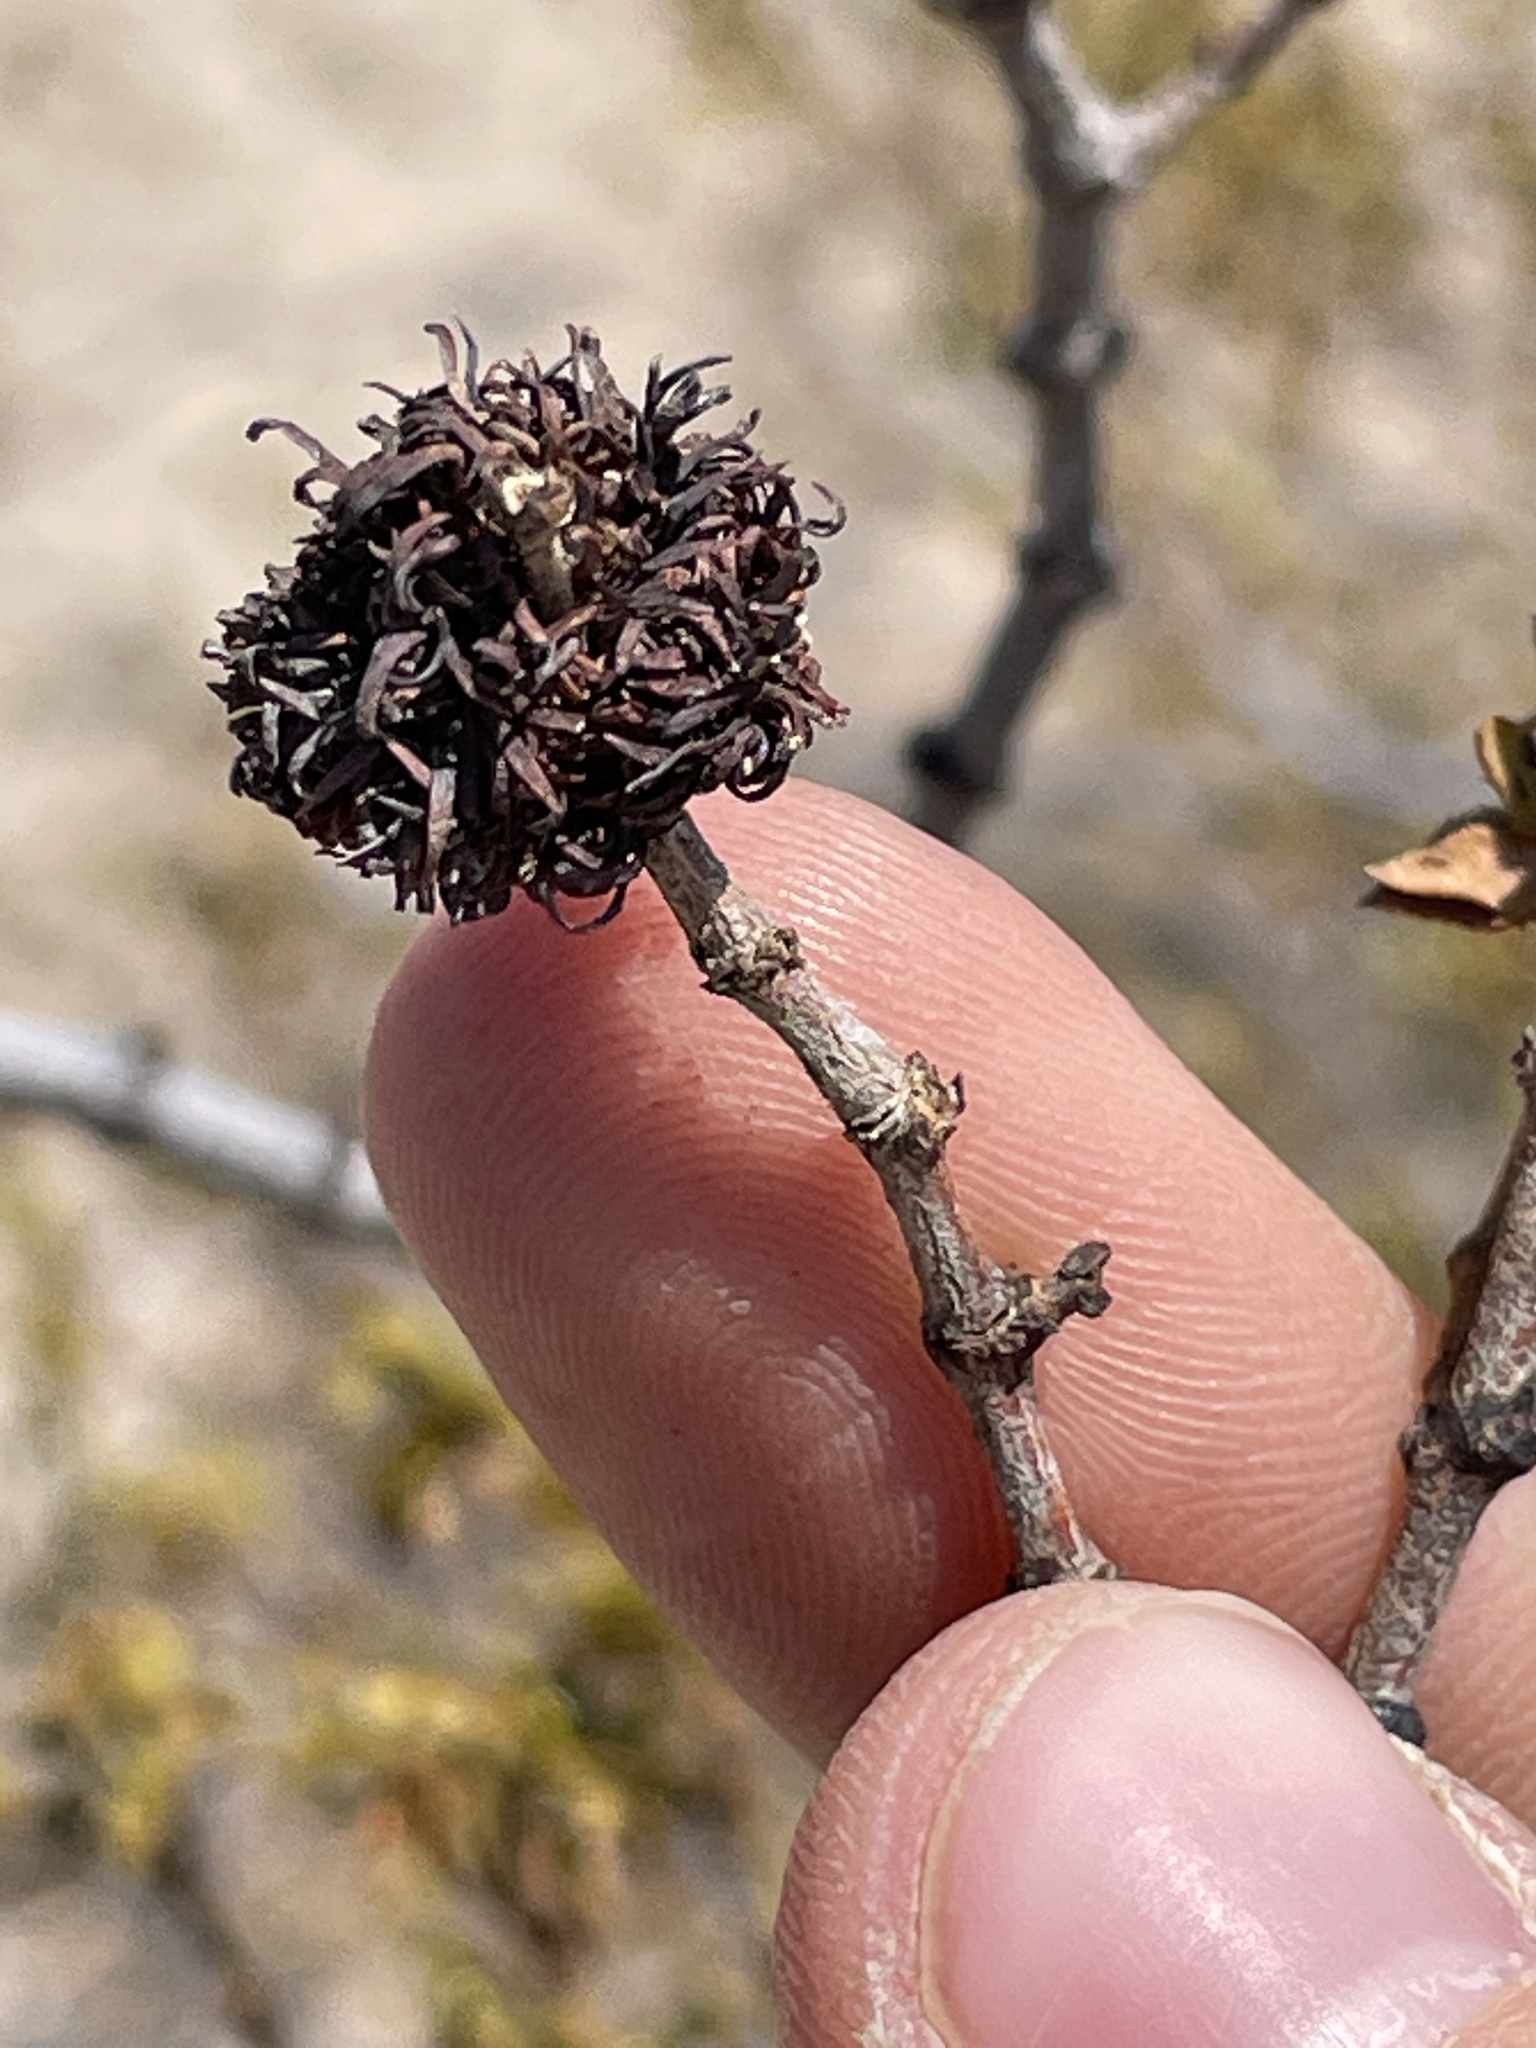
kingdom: Animalia
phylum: Arthropoda
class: Insecta
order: Diptera
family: Cecidomyiidae
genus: Asphondylia
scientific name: Asphondylia auripila
